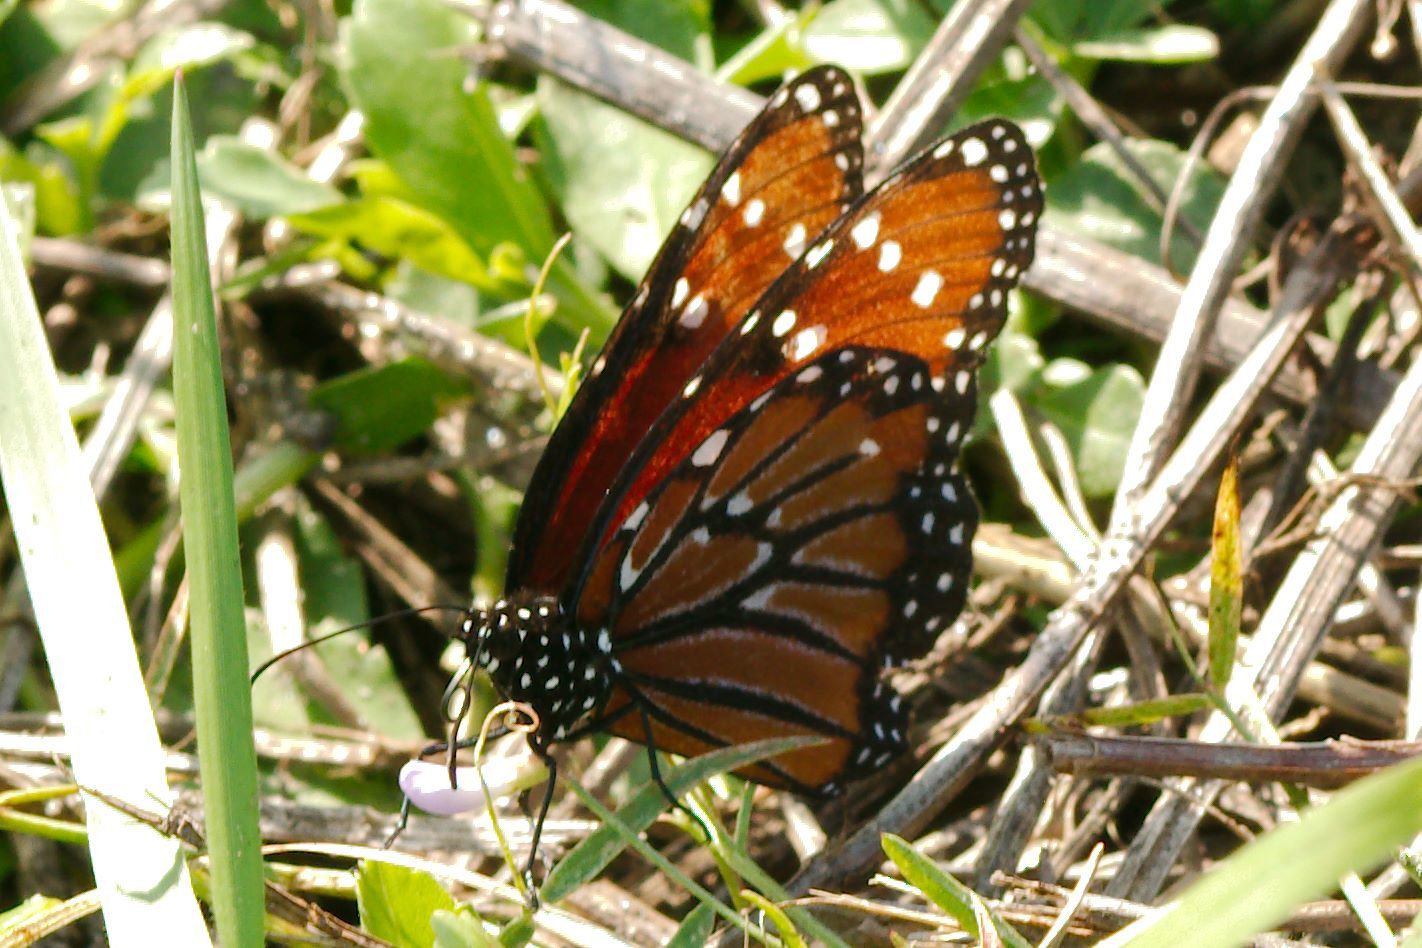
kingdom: Animalia
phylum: Arthropoda
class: Insecta
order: Lepidoptera
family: Nymphalidae
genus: Danaus
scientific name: Danaus gilippus
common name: Queen
